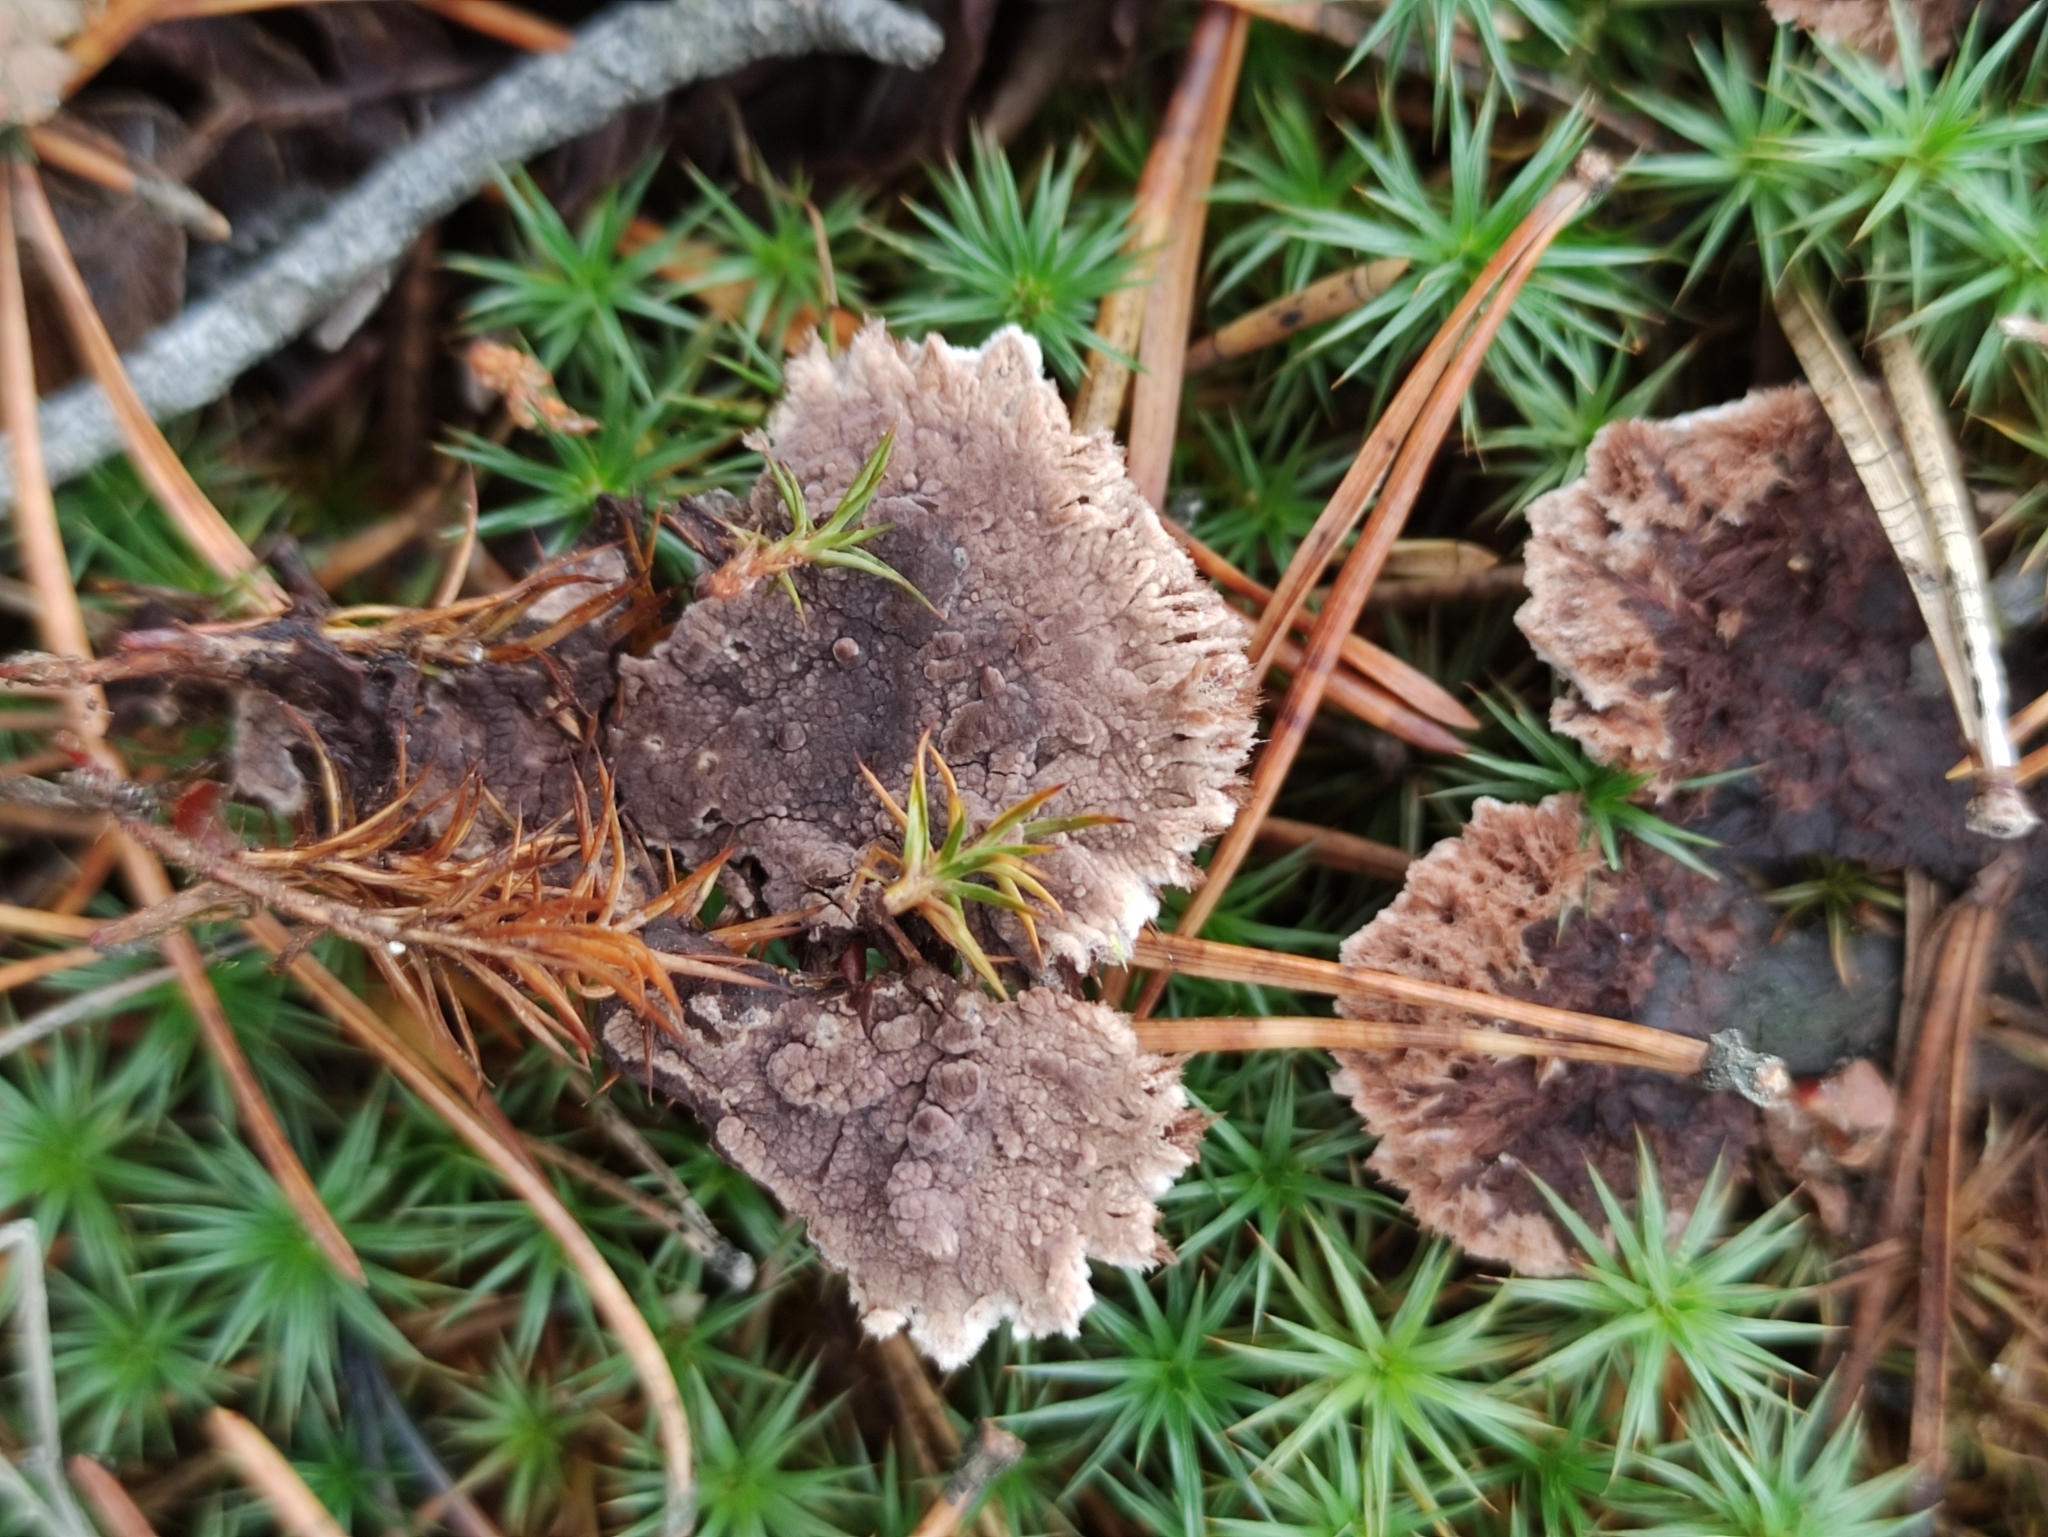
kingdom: Fungi
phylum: Basidiomycota
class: Agaricomycetes
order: Thelephorales
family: Thelephoraceae
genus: Thelephora
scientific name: Thelephora terrestris
